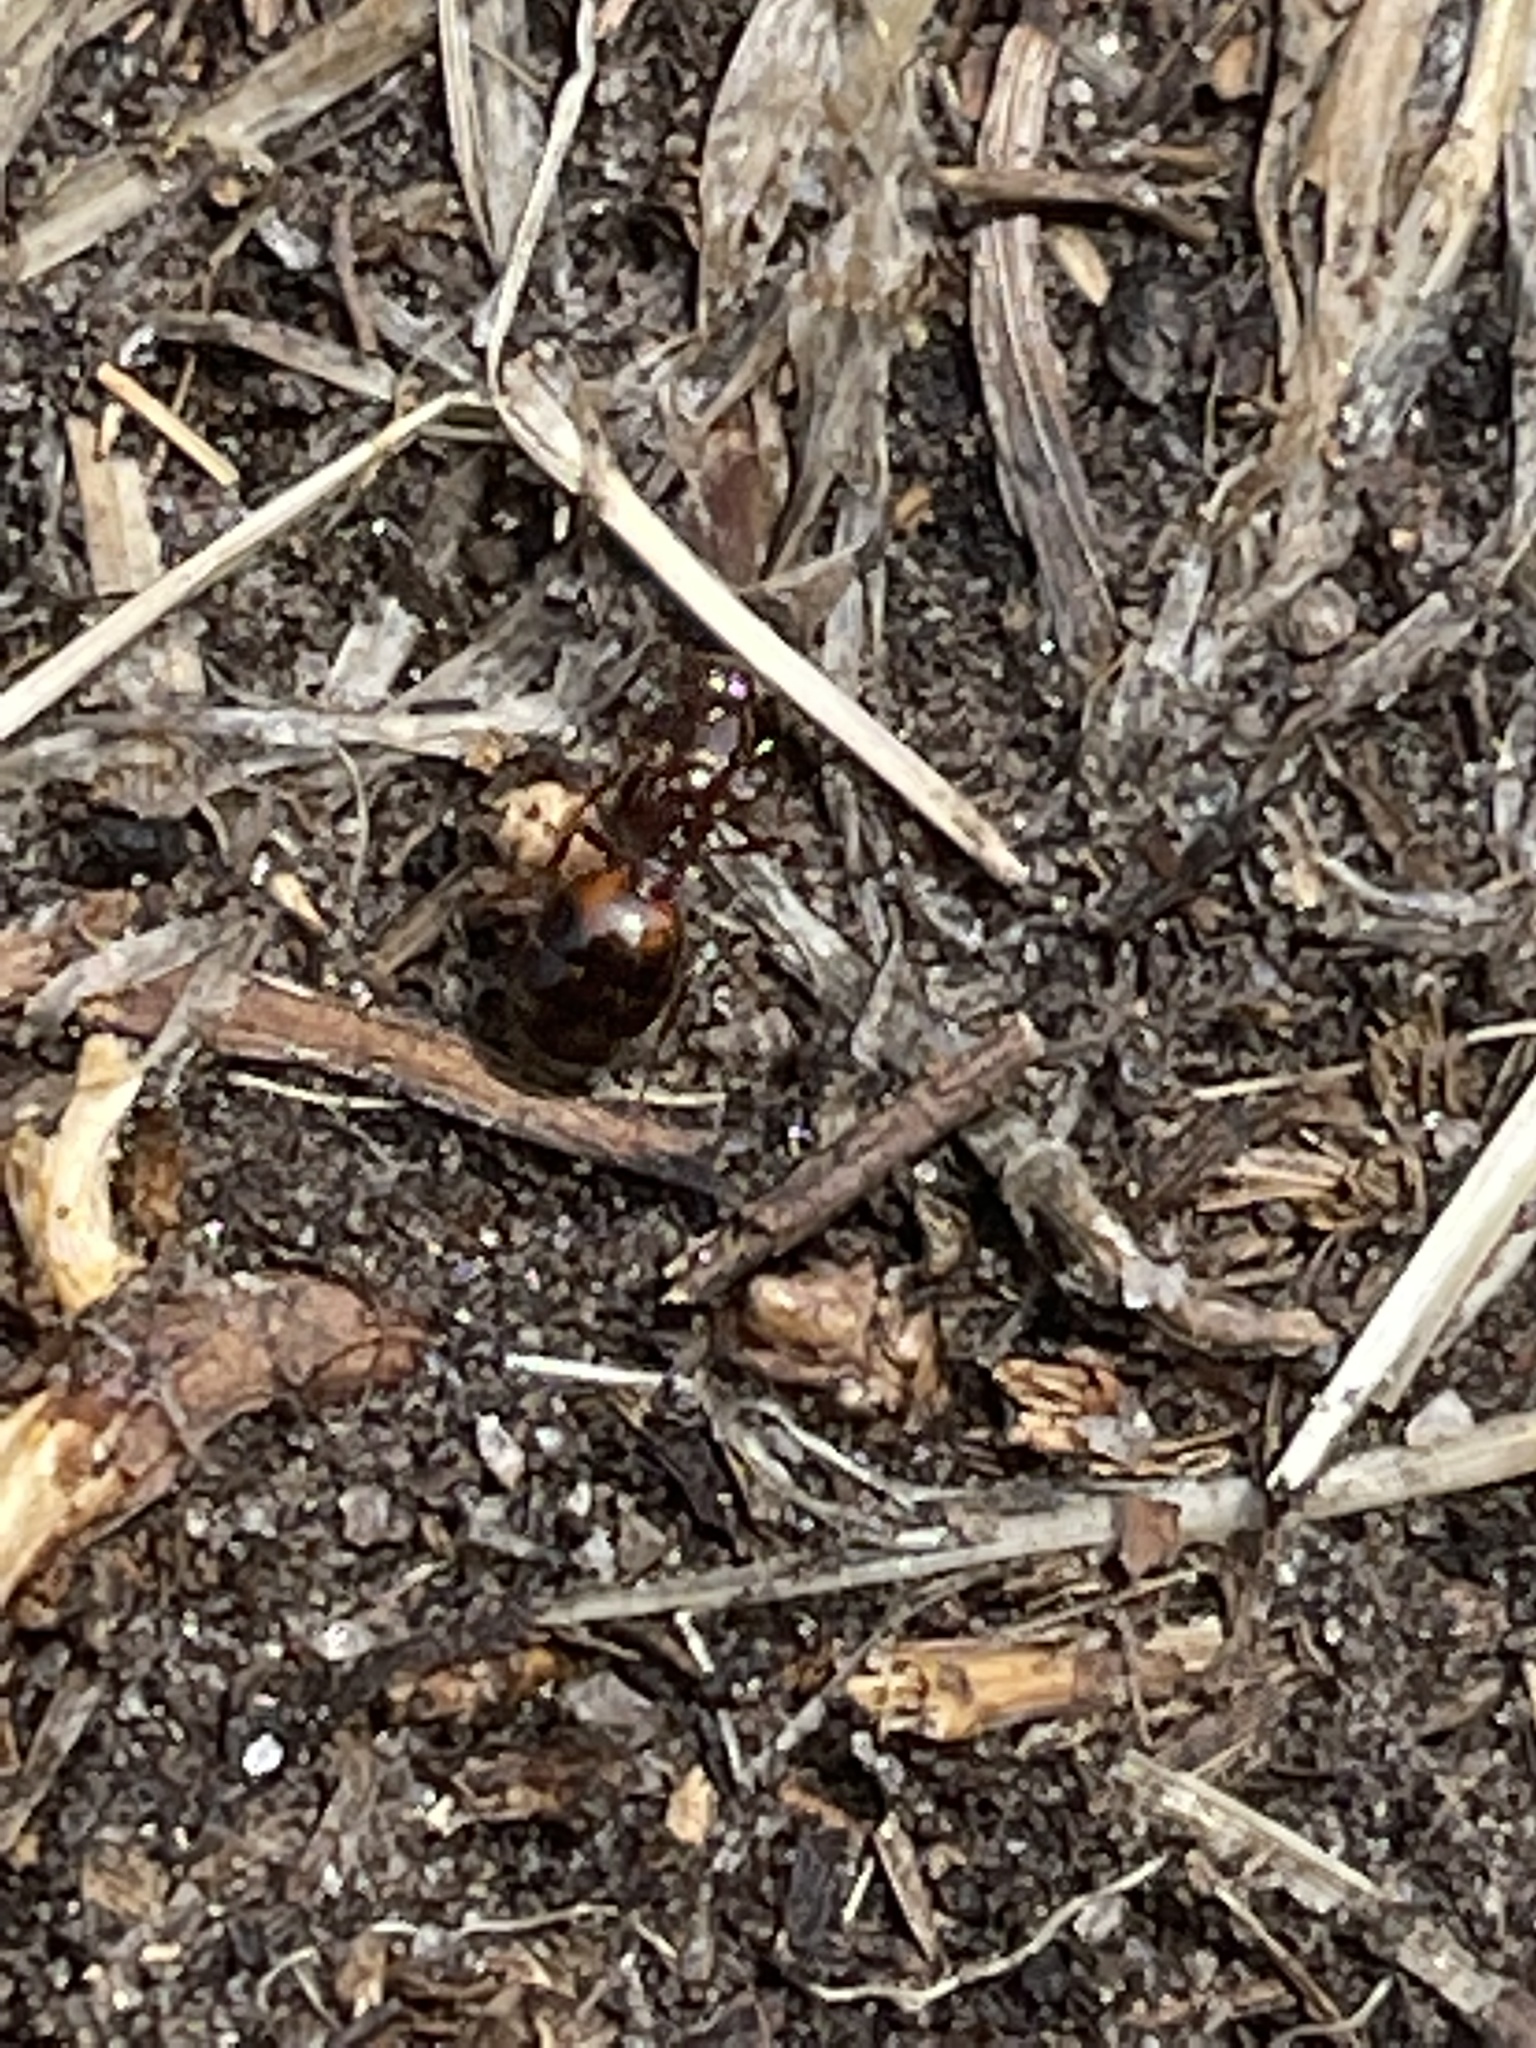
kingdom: Animalia
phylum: Arthropoda
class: Insecta
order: Hymenoptera
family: Formicidae
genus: Solenopsis
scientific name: Solenopsis invicta
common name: Red imported fire ant
